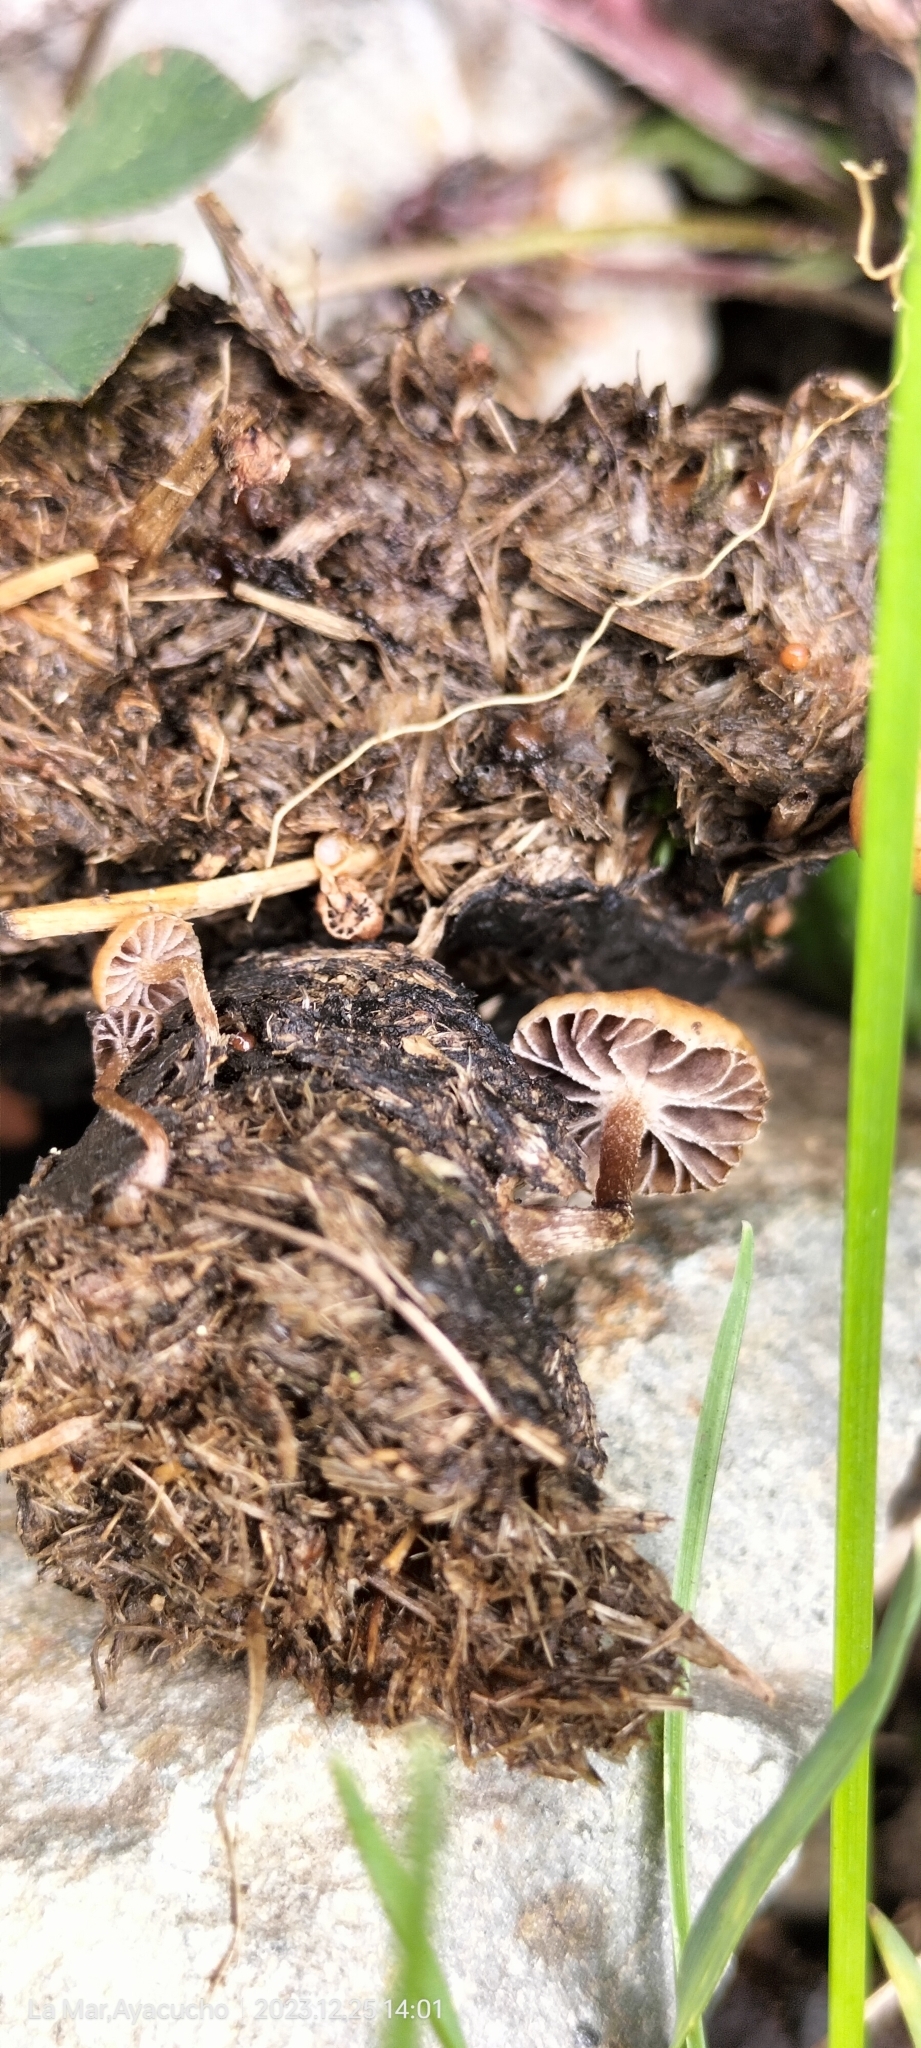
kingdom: Fungi
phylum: Basidiomycota
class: Agaricomycetes
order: Agaricales
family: Strophariaceae
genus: Deconica
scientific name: Deconica coprophila
